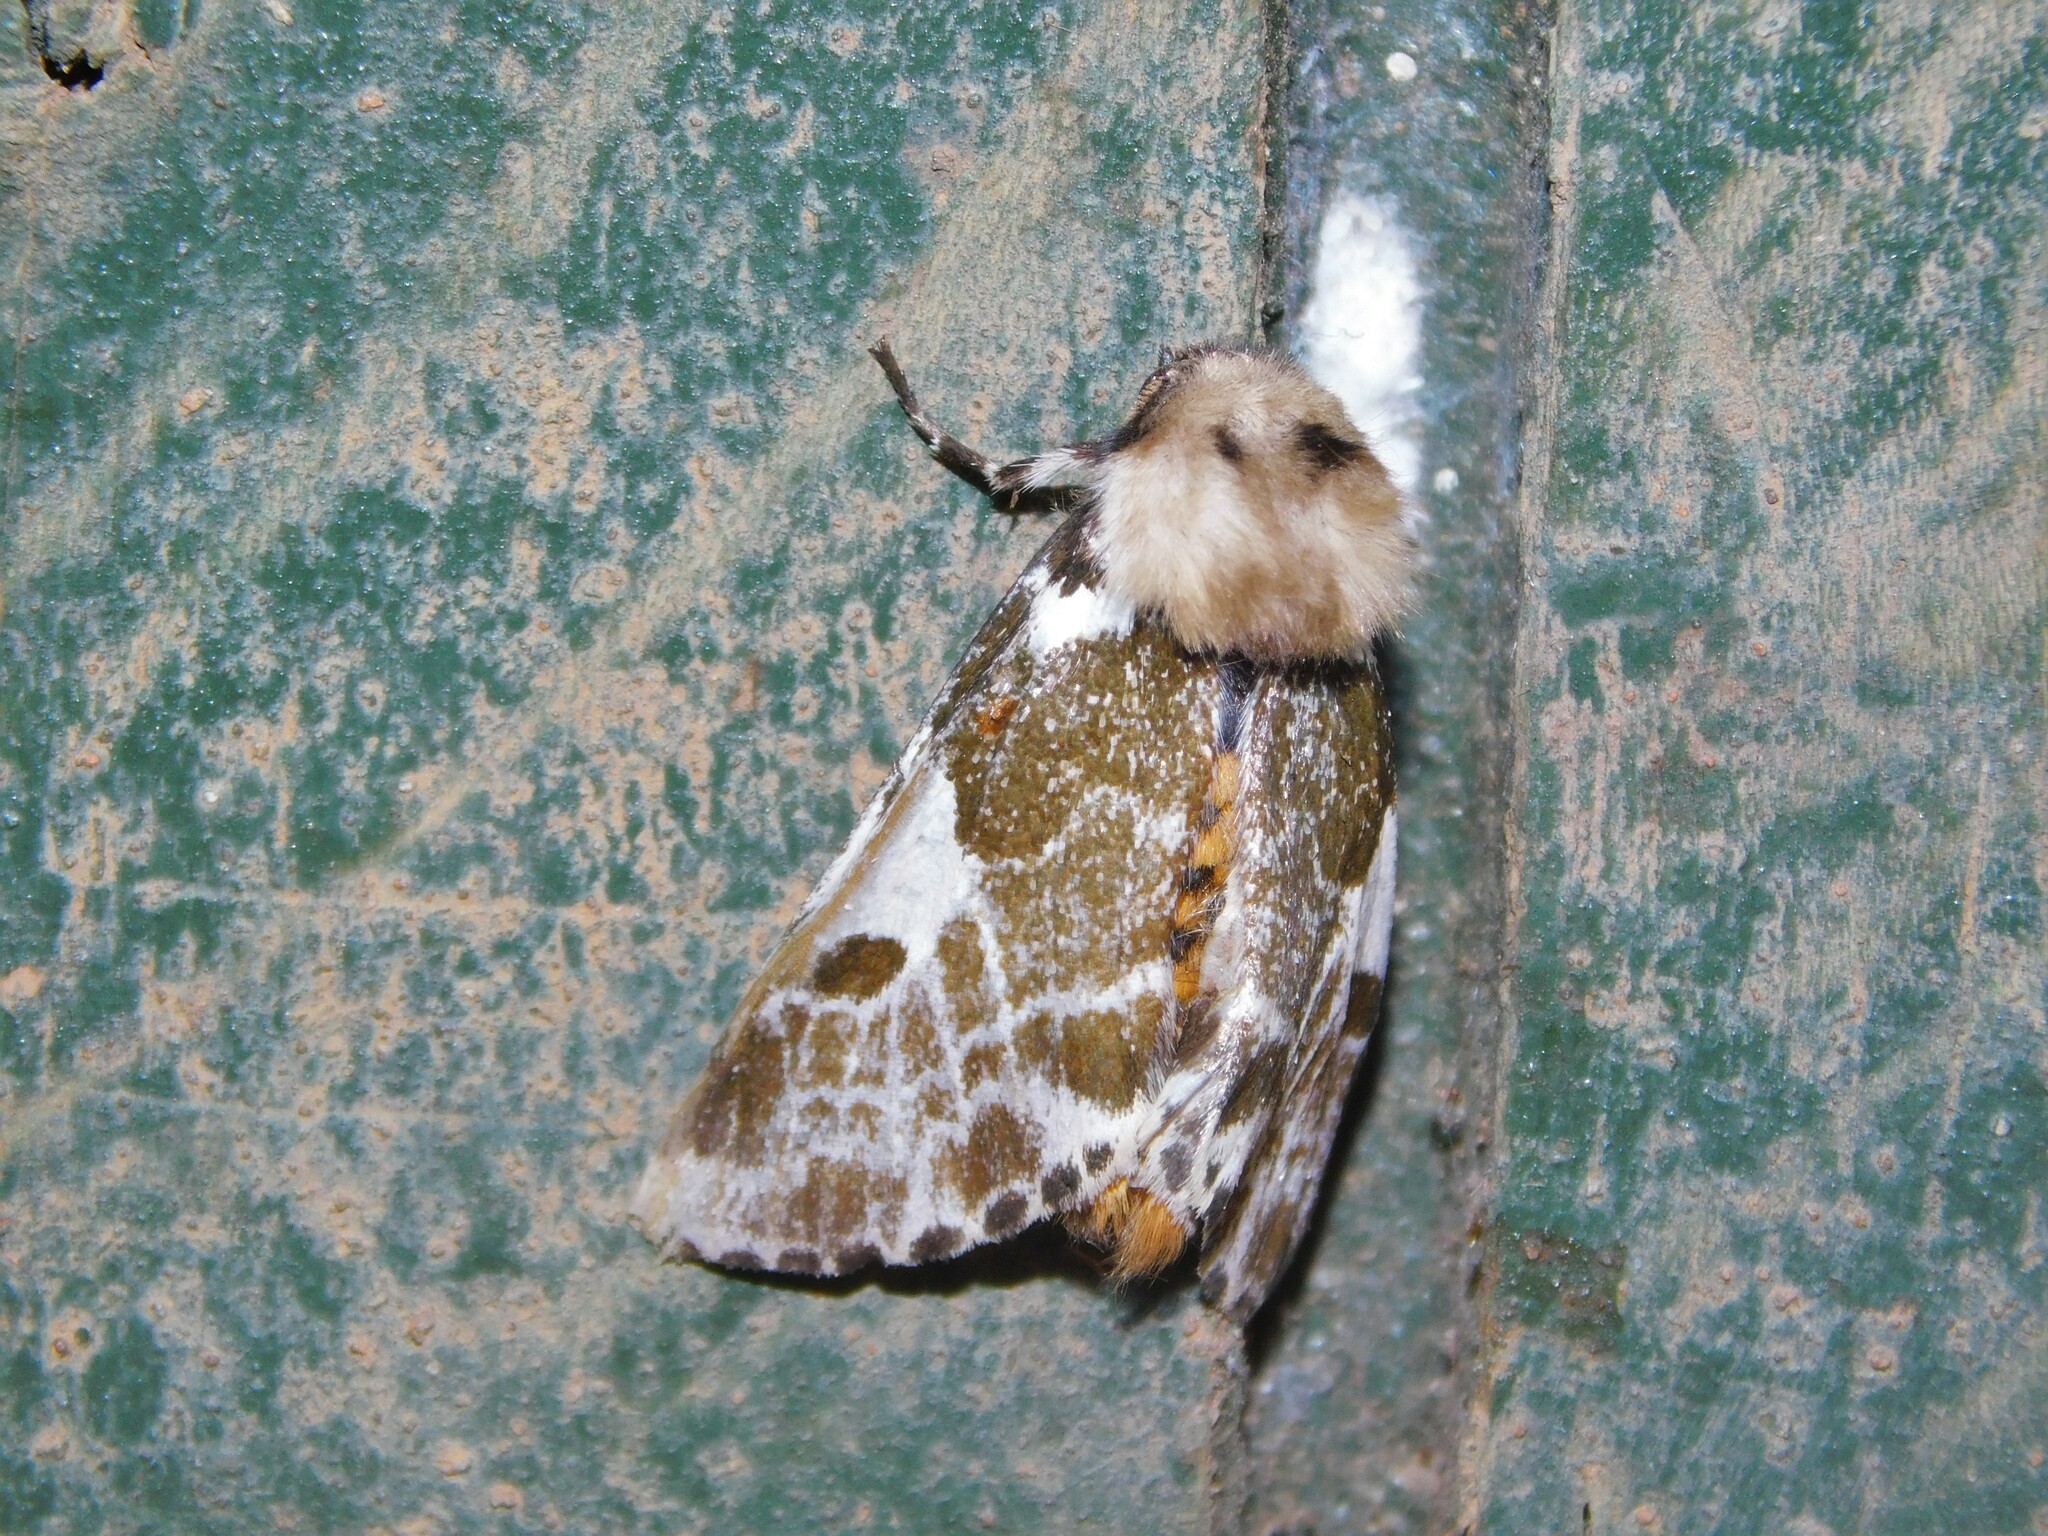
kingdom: Animalia
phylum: Arthropoda
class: Insecta
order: Lepidoptera
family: Erebidae
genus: Sciatta
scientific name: Sciatta inconcisa
